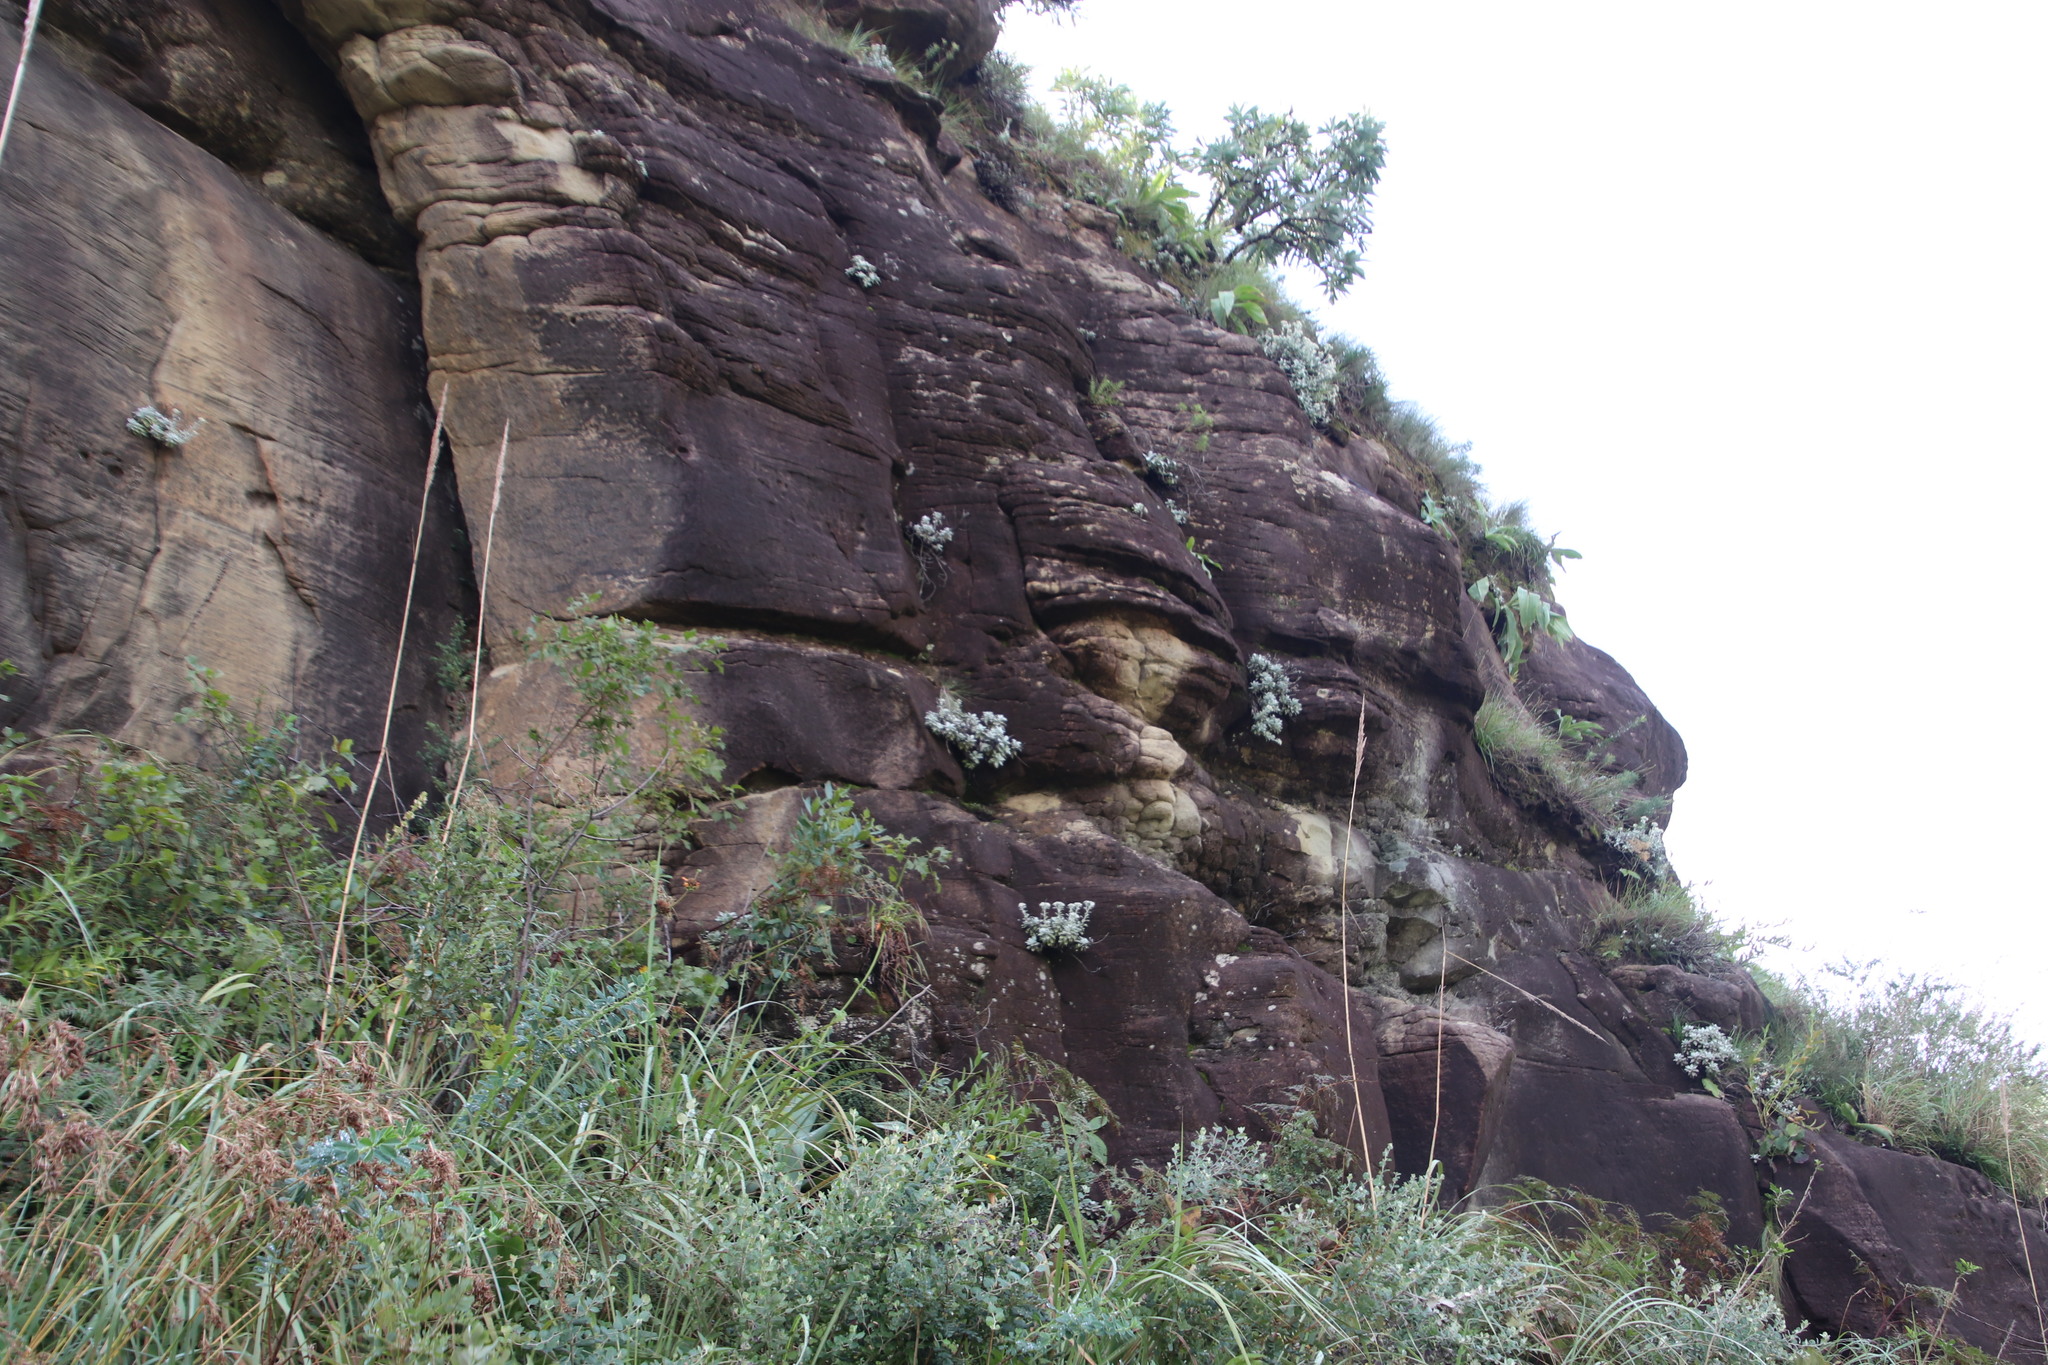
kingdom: Plantae
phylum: Tracheophyta
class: Magnoliopsida
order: Asterales
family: Asteraceae
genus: Helichrysum
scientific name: Helichrysum sutherlandii
